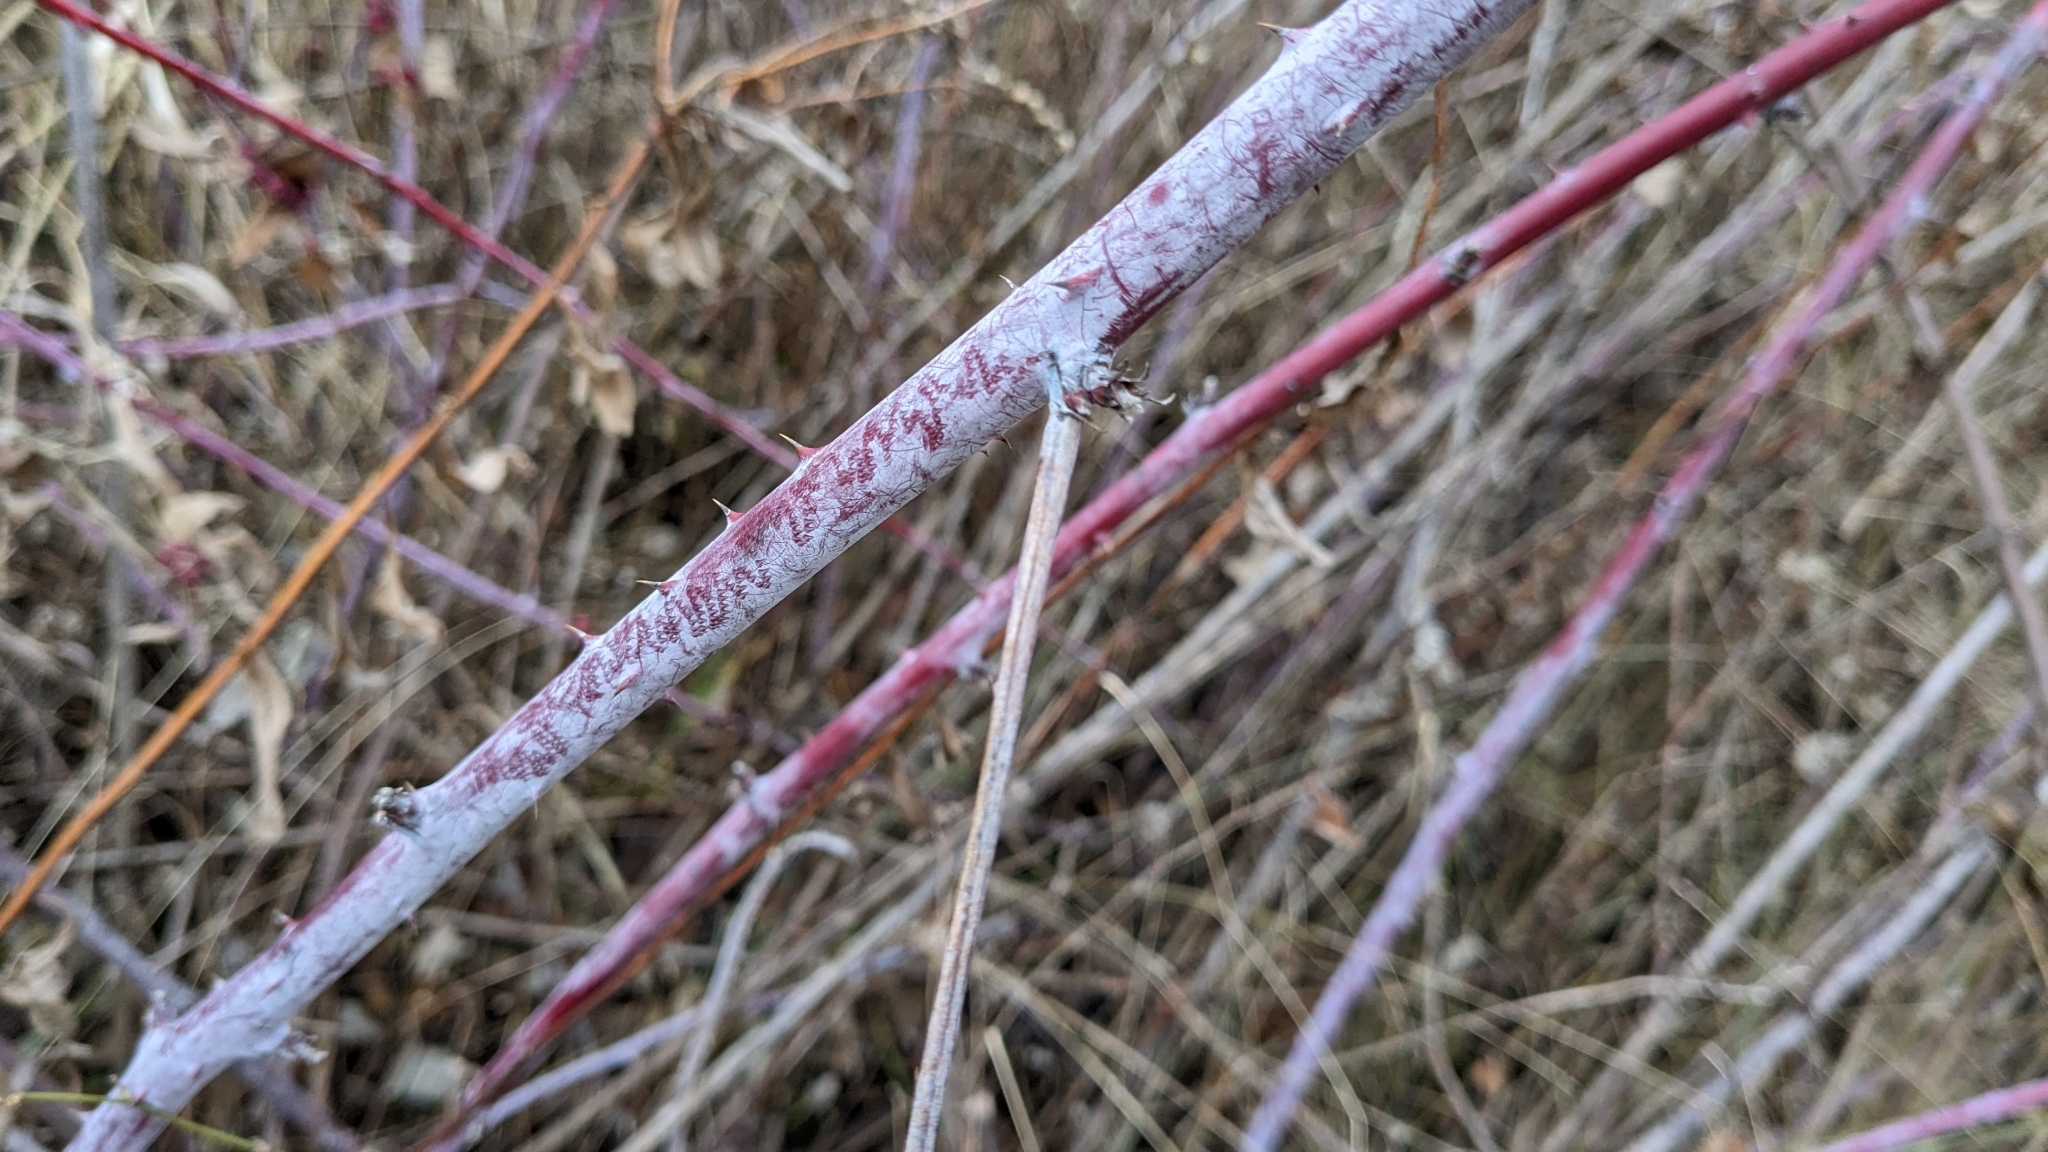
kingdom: Plantae
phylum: Tracheophyta
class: Magnoliopsida
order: Rosales
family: Rosaceae
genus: Rubus
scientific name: Rubus occidentalis
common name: Black raspberry
